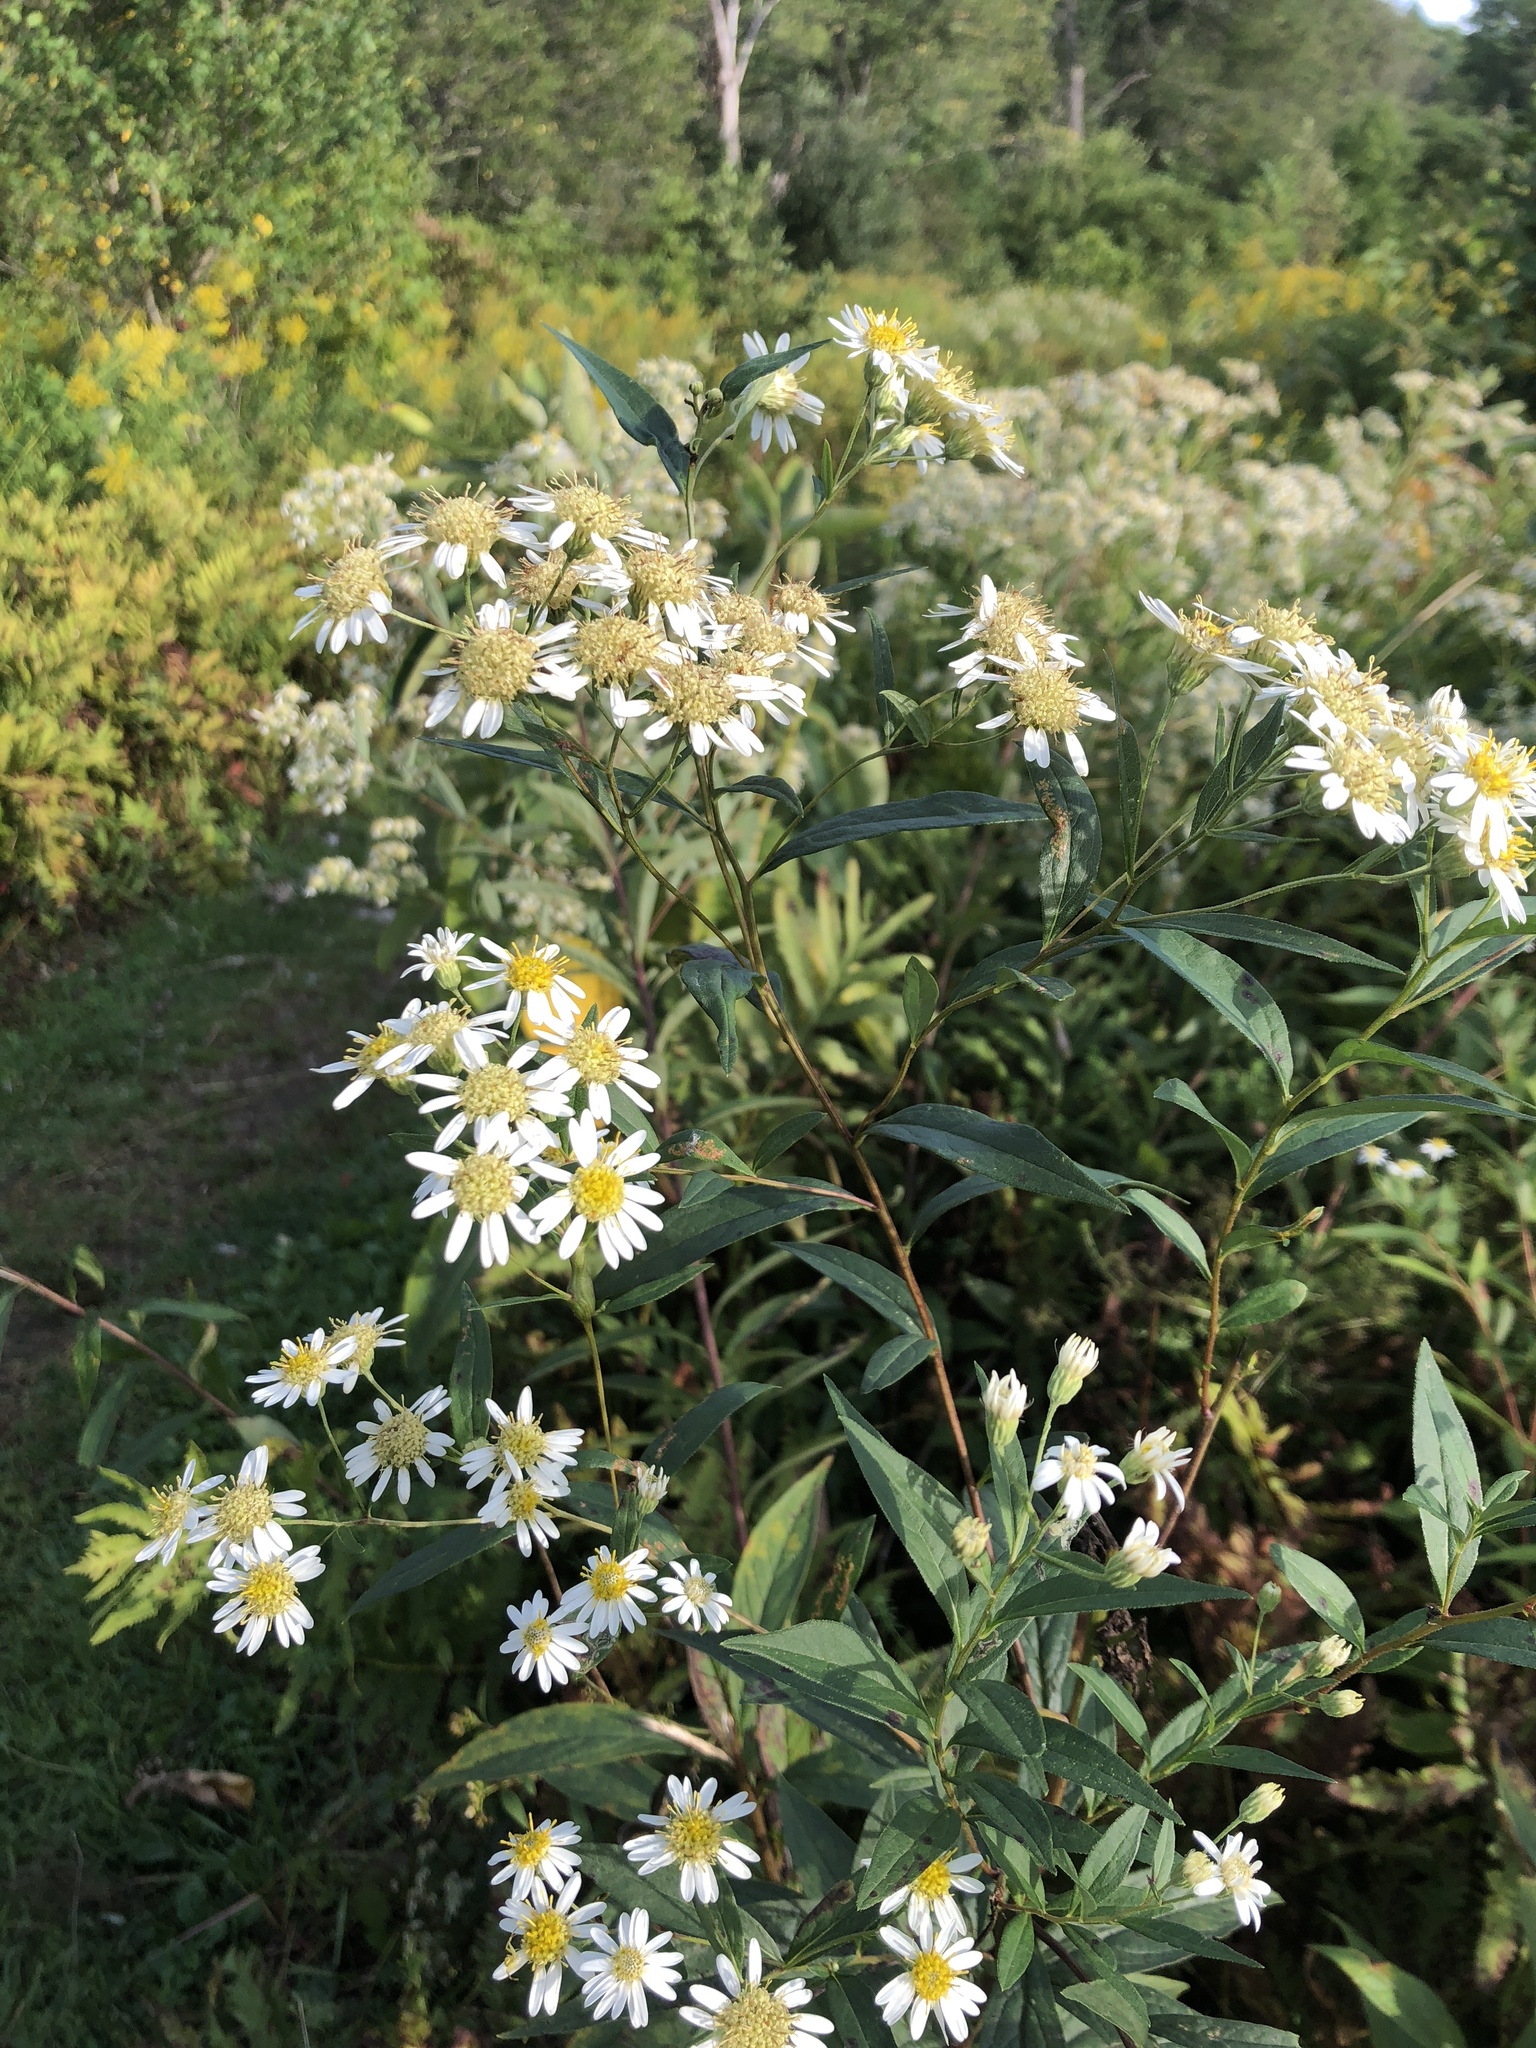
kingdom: Plantae
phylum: Tracheophyta
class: Magnoliopsida
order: Asterales
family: Asteraceae
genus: Doellingeria
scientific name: Doellingeria umbellata
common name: Flat-top white aster
